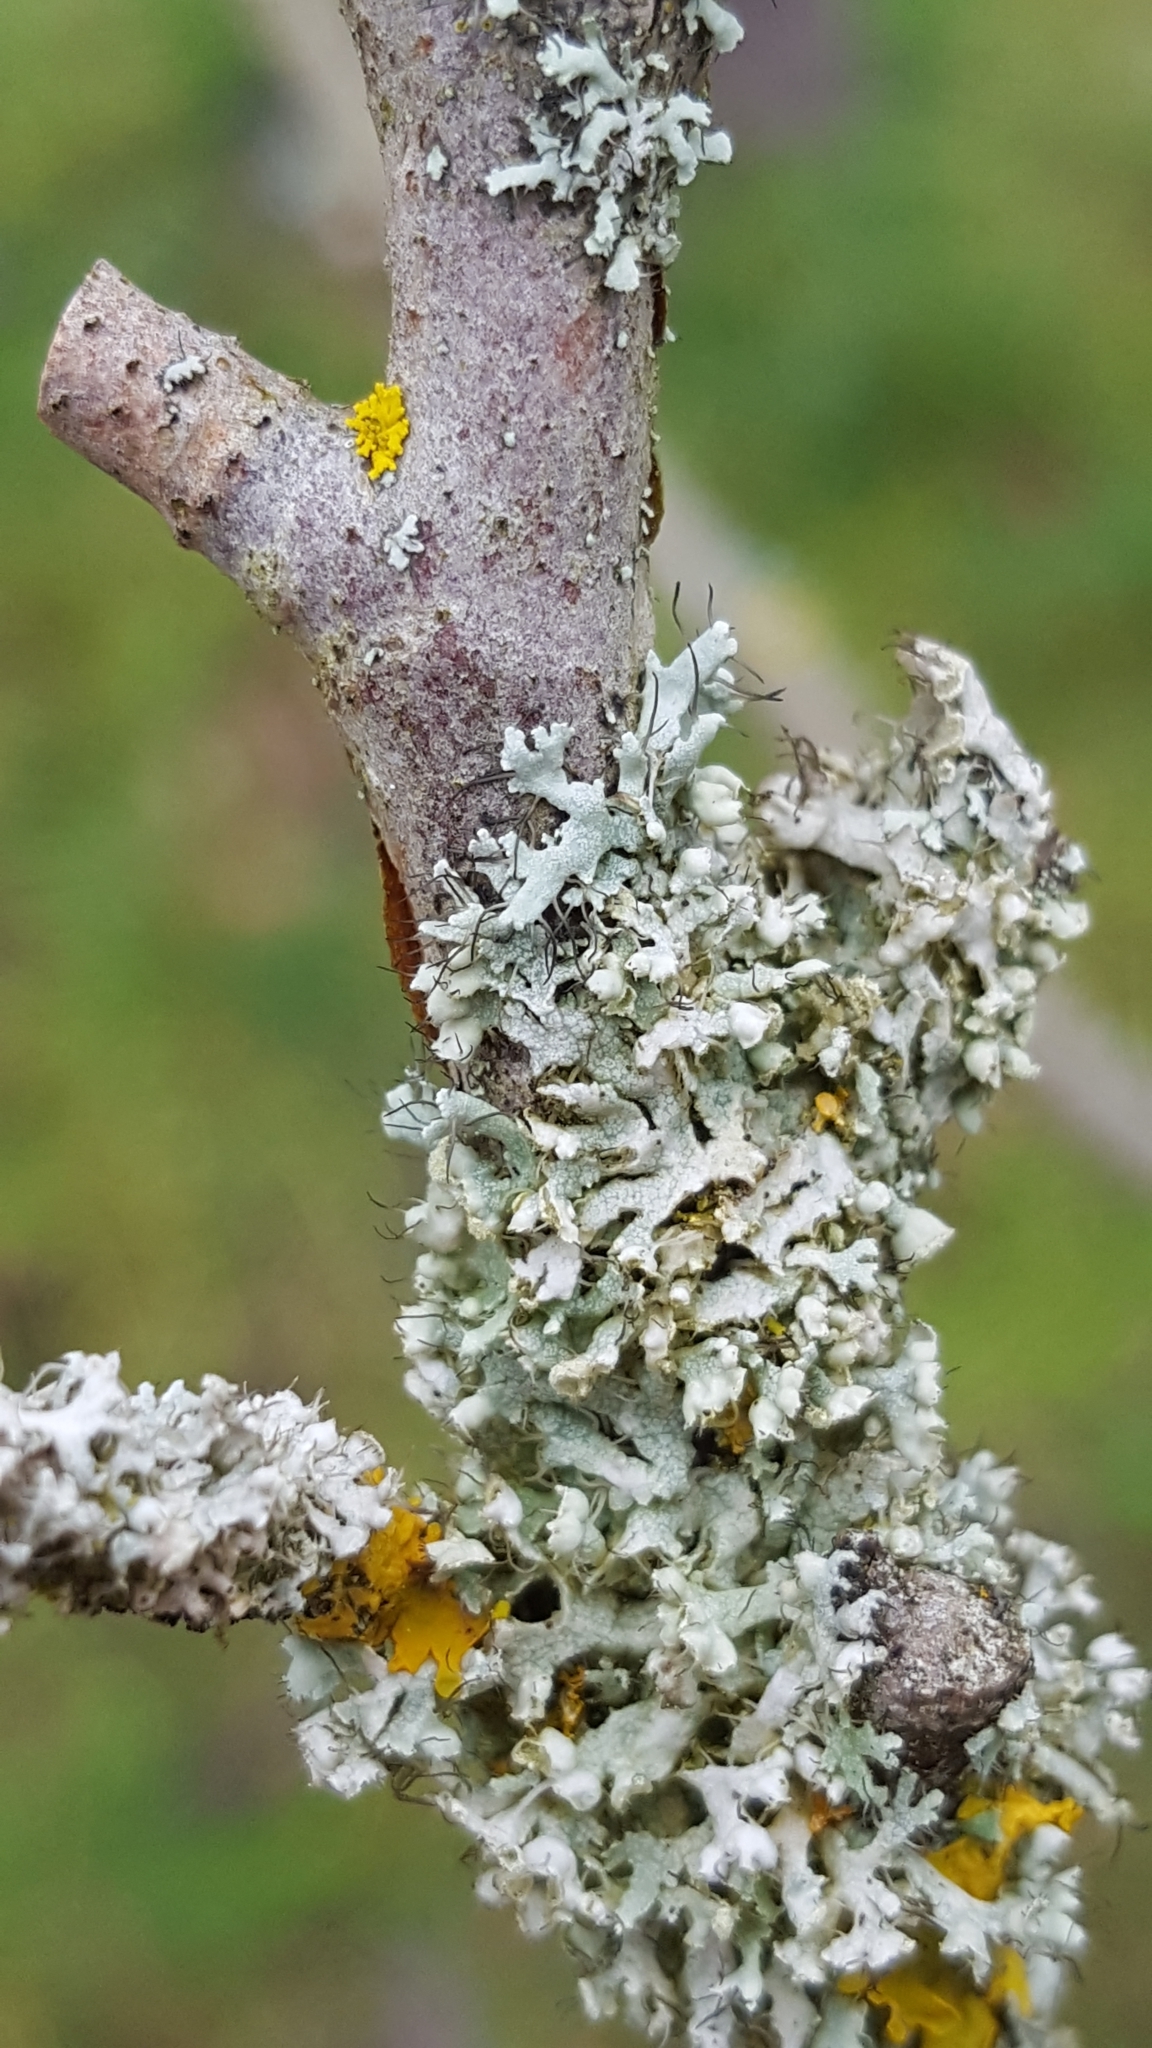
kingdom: Fungi
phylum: Ascomycota
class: Lecanoromycetes
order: Caliciales
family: Physciaceae
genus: Physcia
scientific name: Physcia adscendens
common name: Hooded rosette lichen
